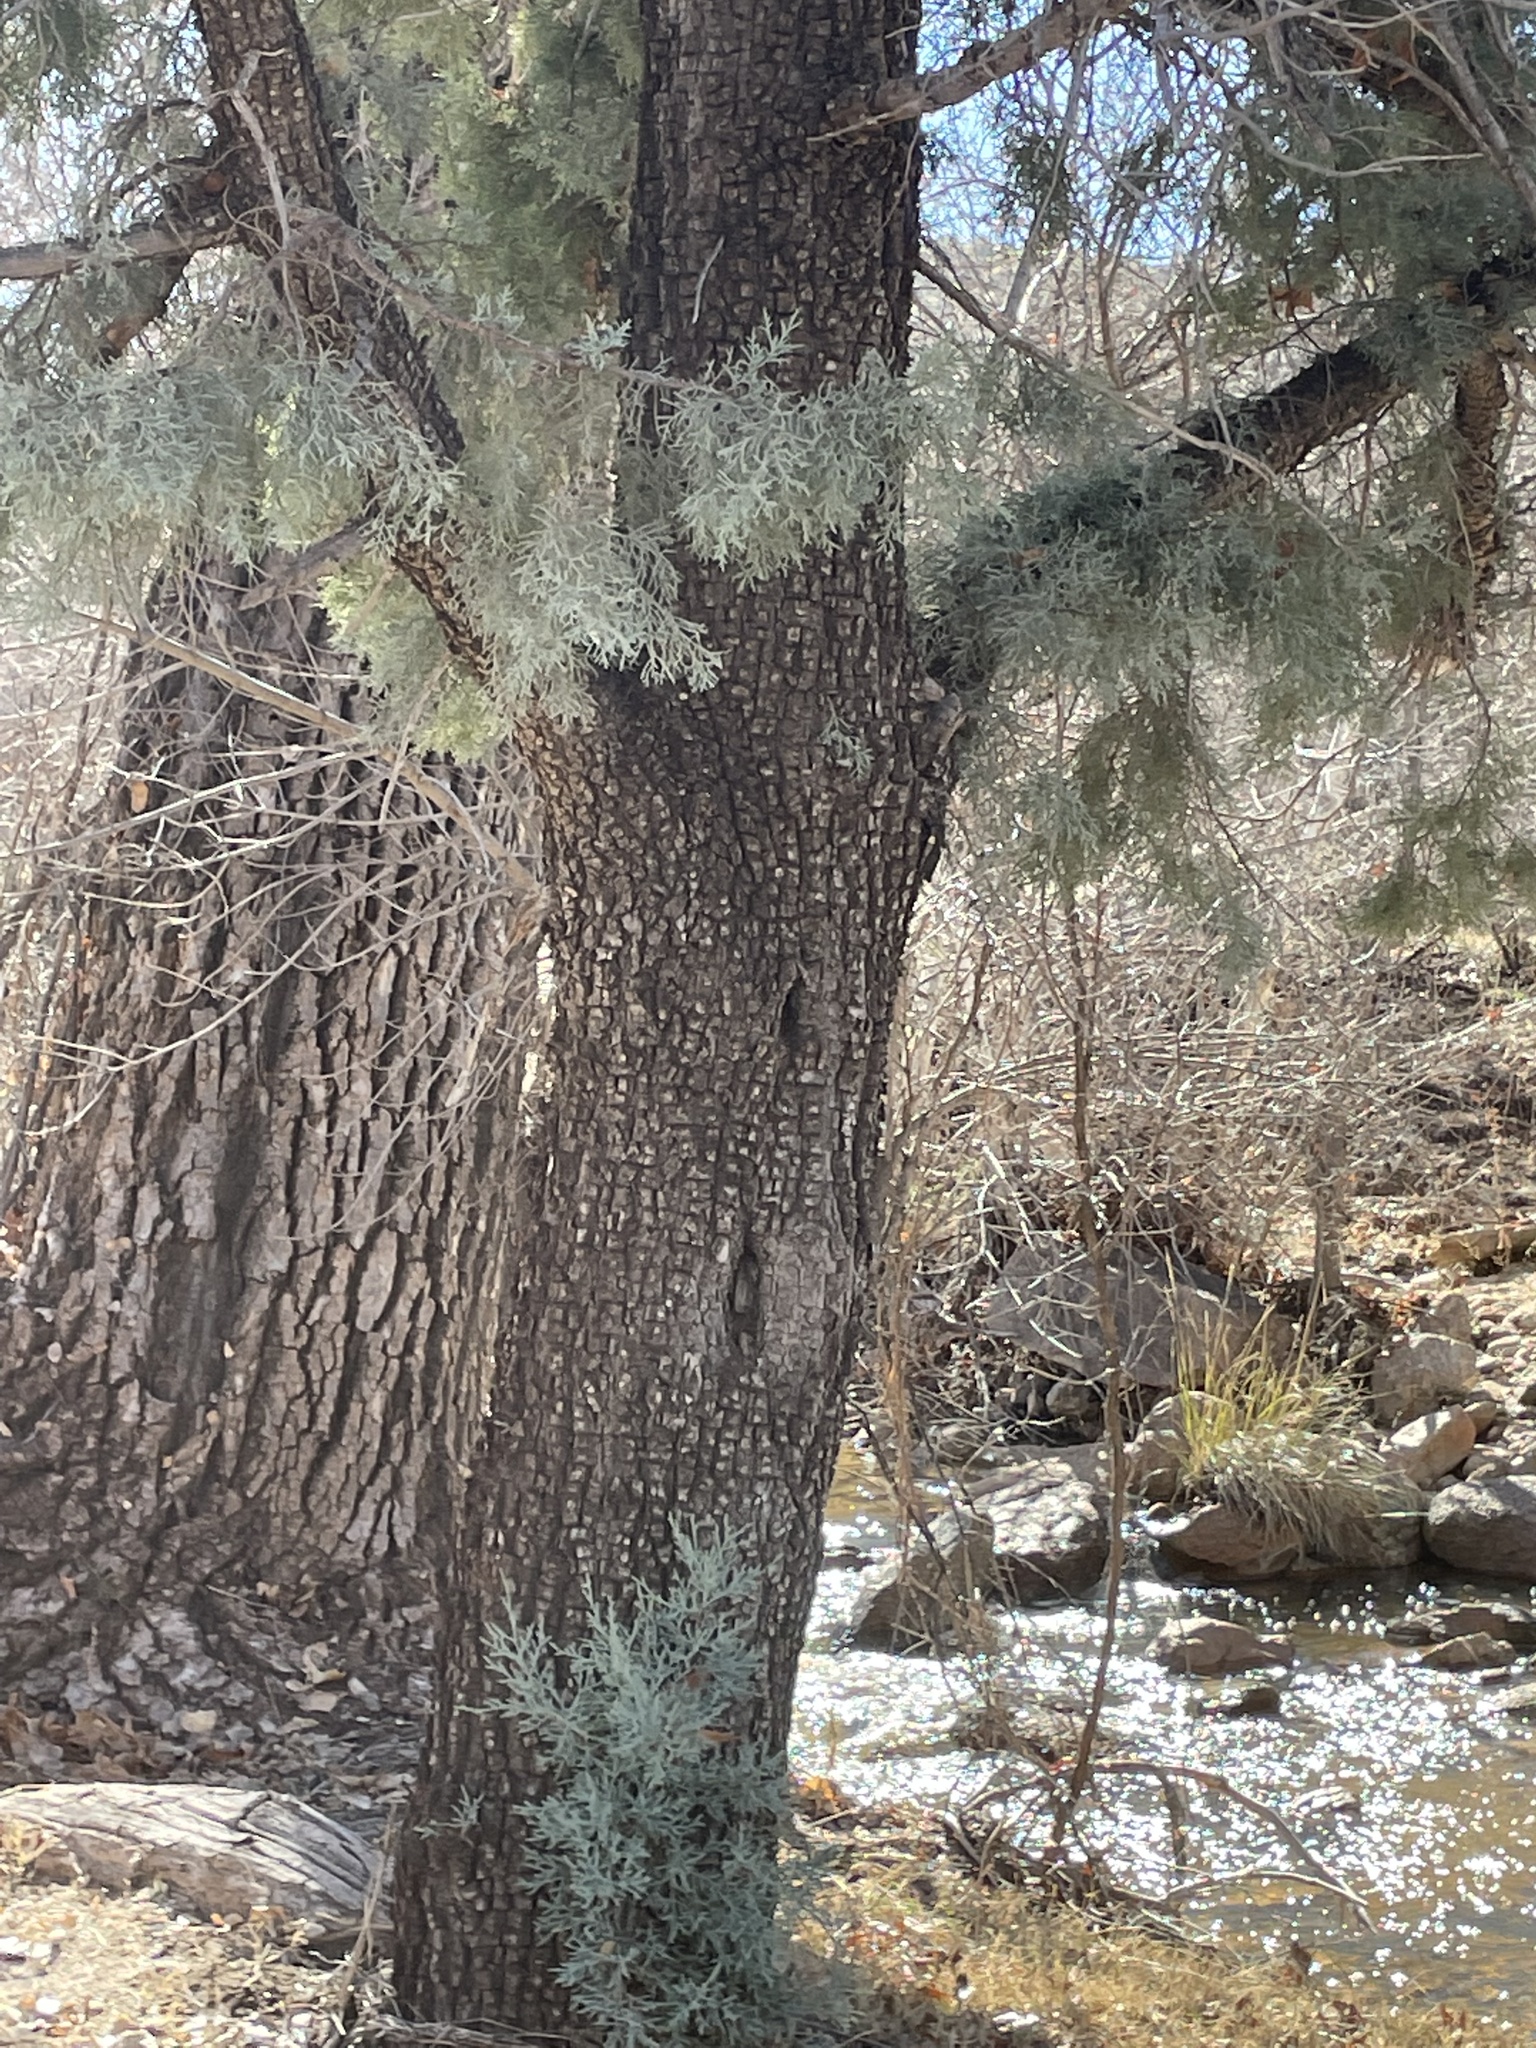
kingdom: Plantae
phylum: Tracheophyta
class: Pinopsida
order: Pinales
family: Cupressaceae
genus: Juniperus
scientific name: Juniperus deppeana
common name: Alligator juniper
